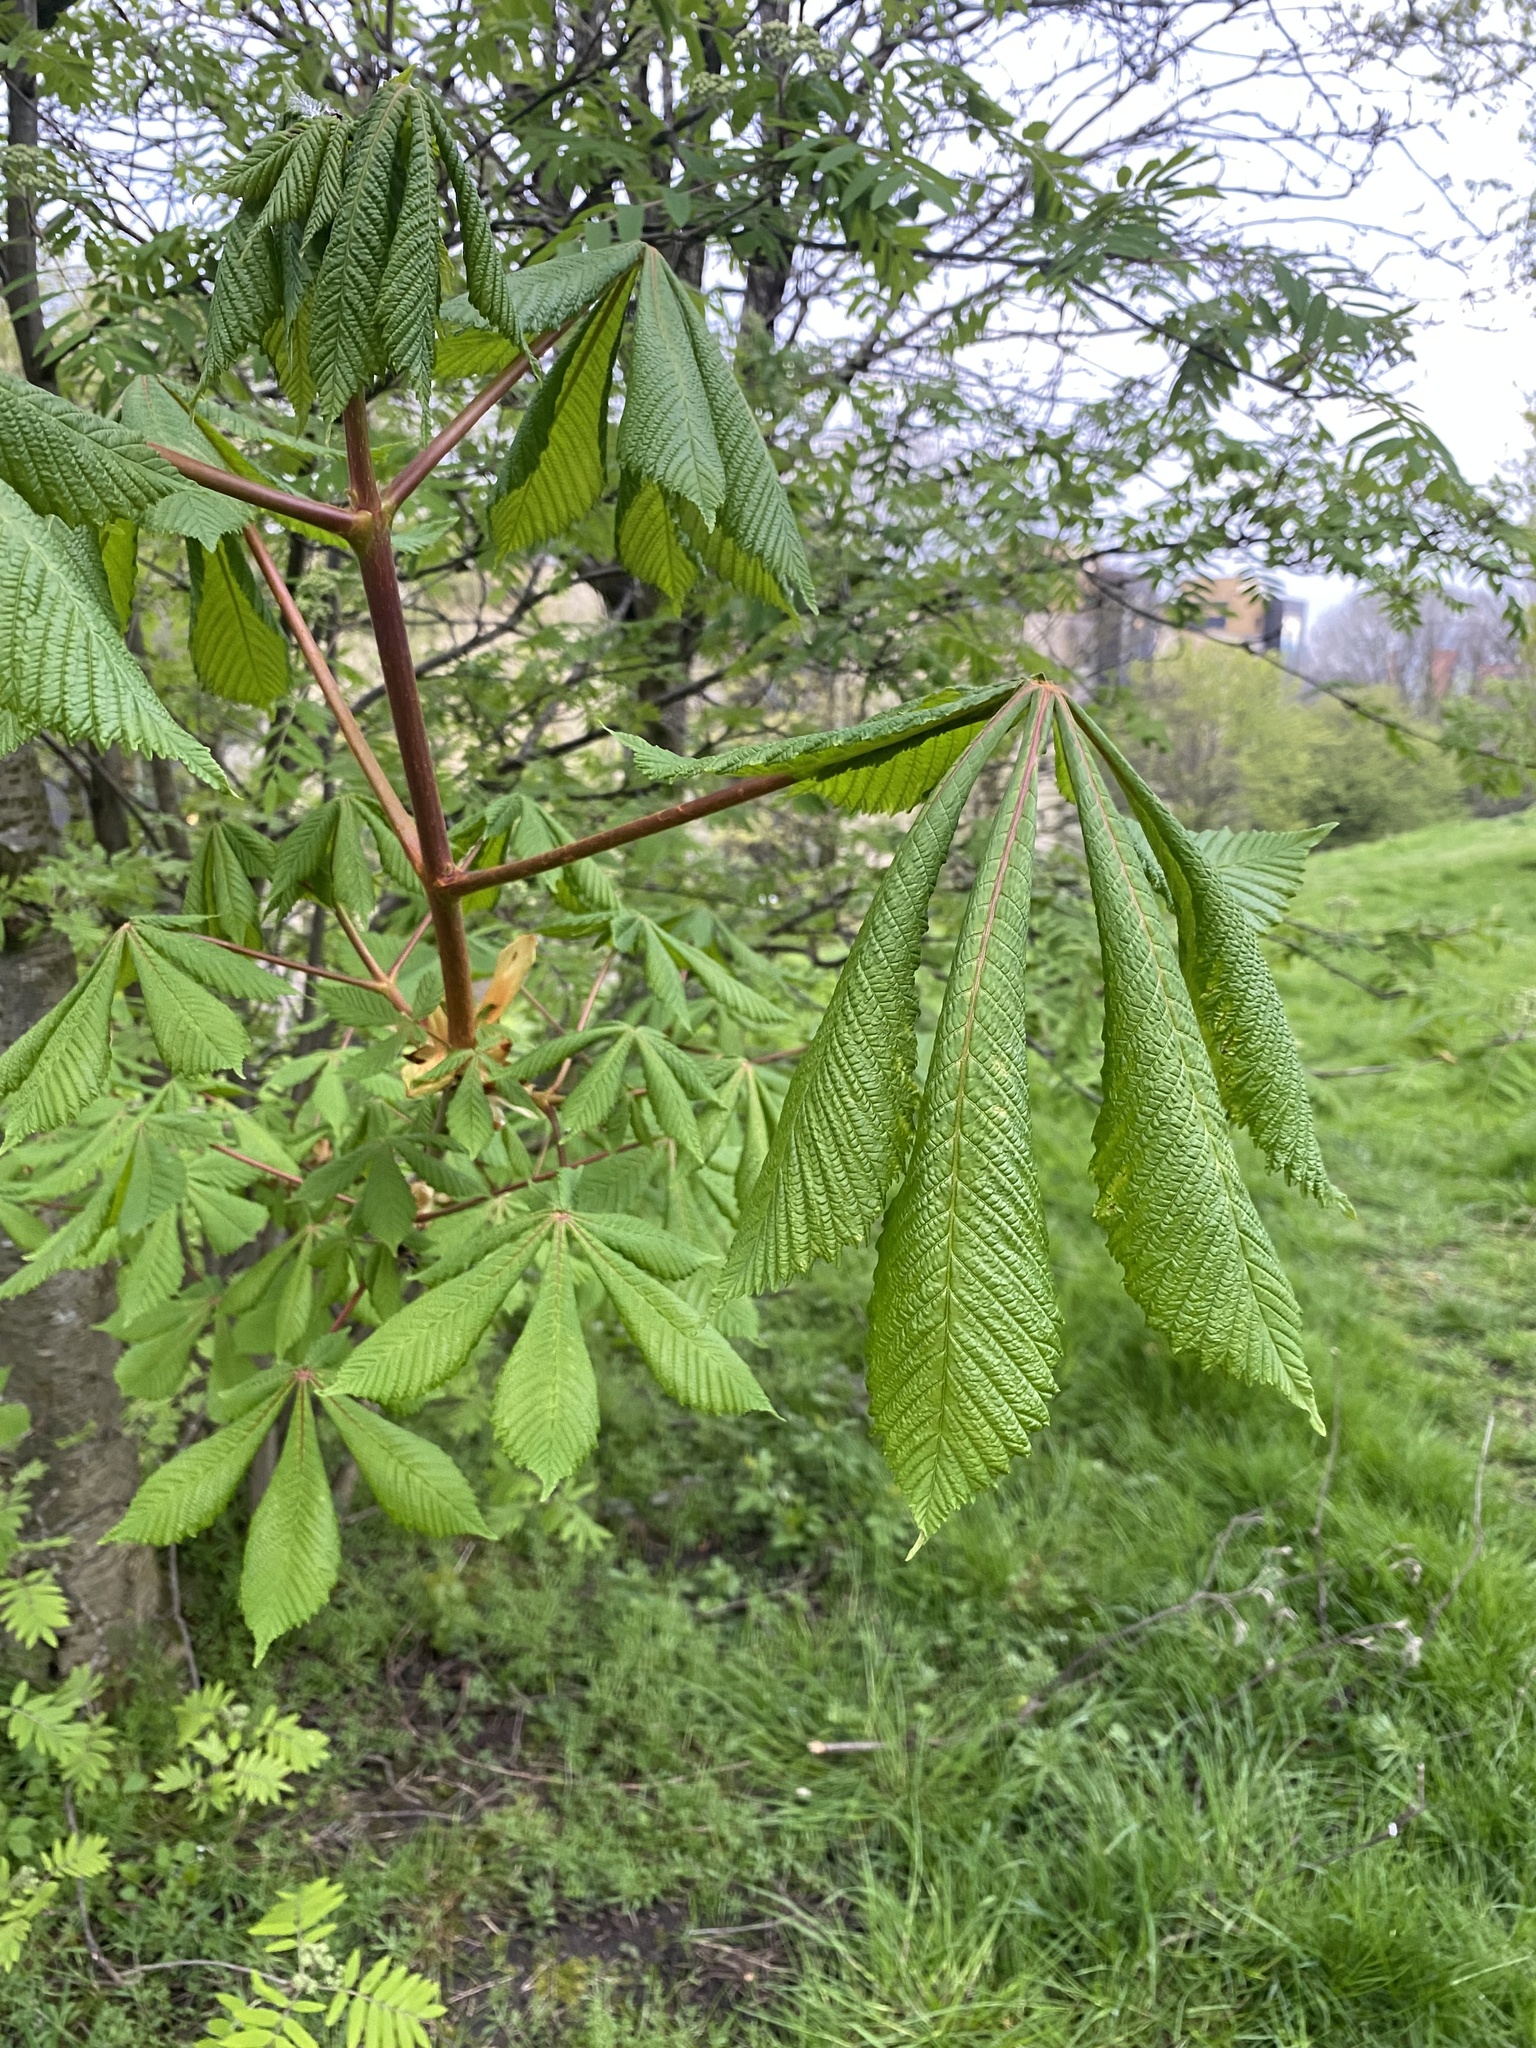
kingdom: Plantae
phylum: Tracheophyta
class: Magnoliopsida
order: Sapindales
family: Sapindaceae
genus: Aesculus
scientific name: Aesculus hippocastanum
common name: Horse-chestnut
